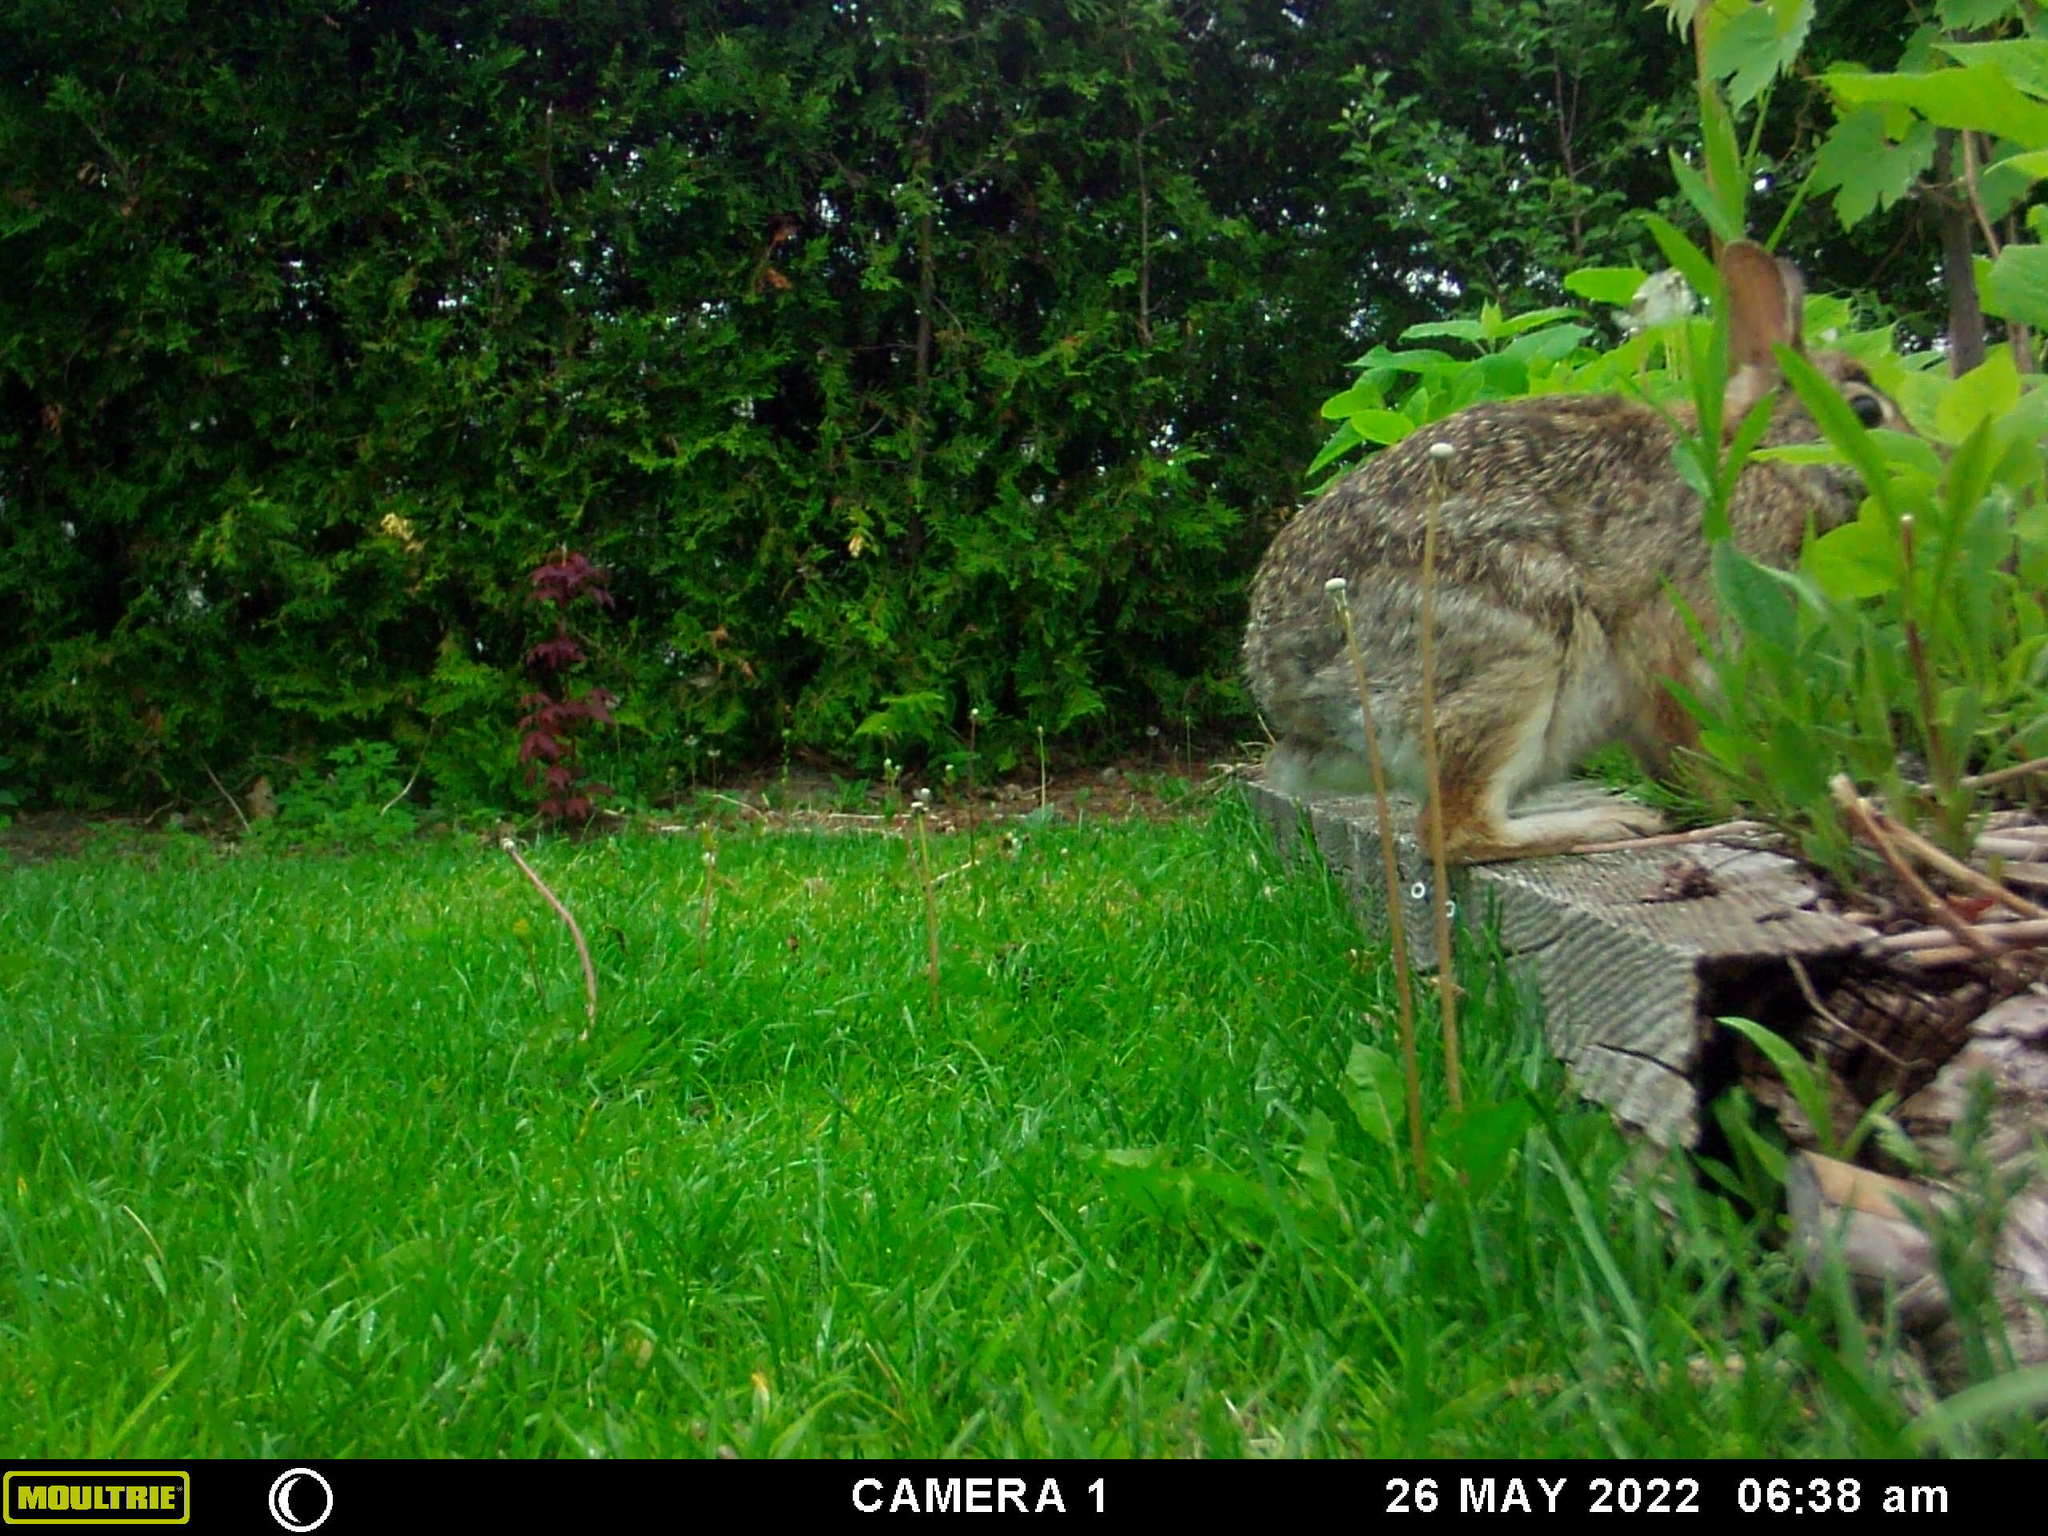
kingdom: Animalia
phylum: Chordata
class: Mammalia
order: Lagomorpha
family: Leporidae
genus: Sylvilagus
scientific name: Sylvilagus floridanus
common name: Eastern cottontail
